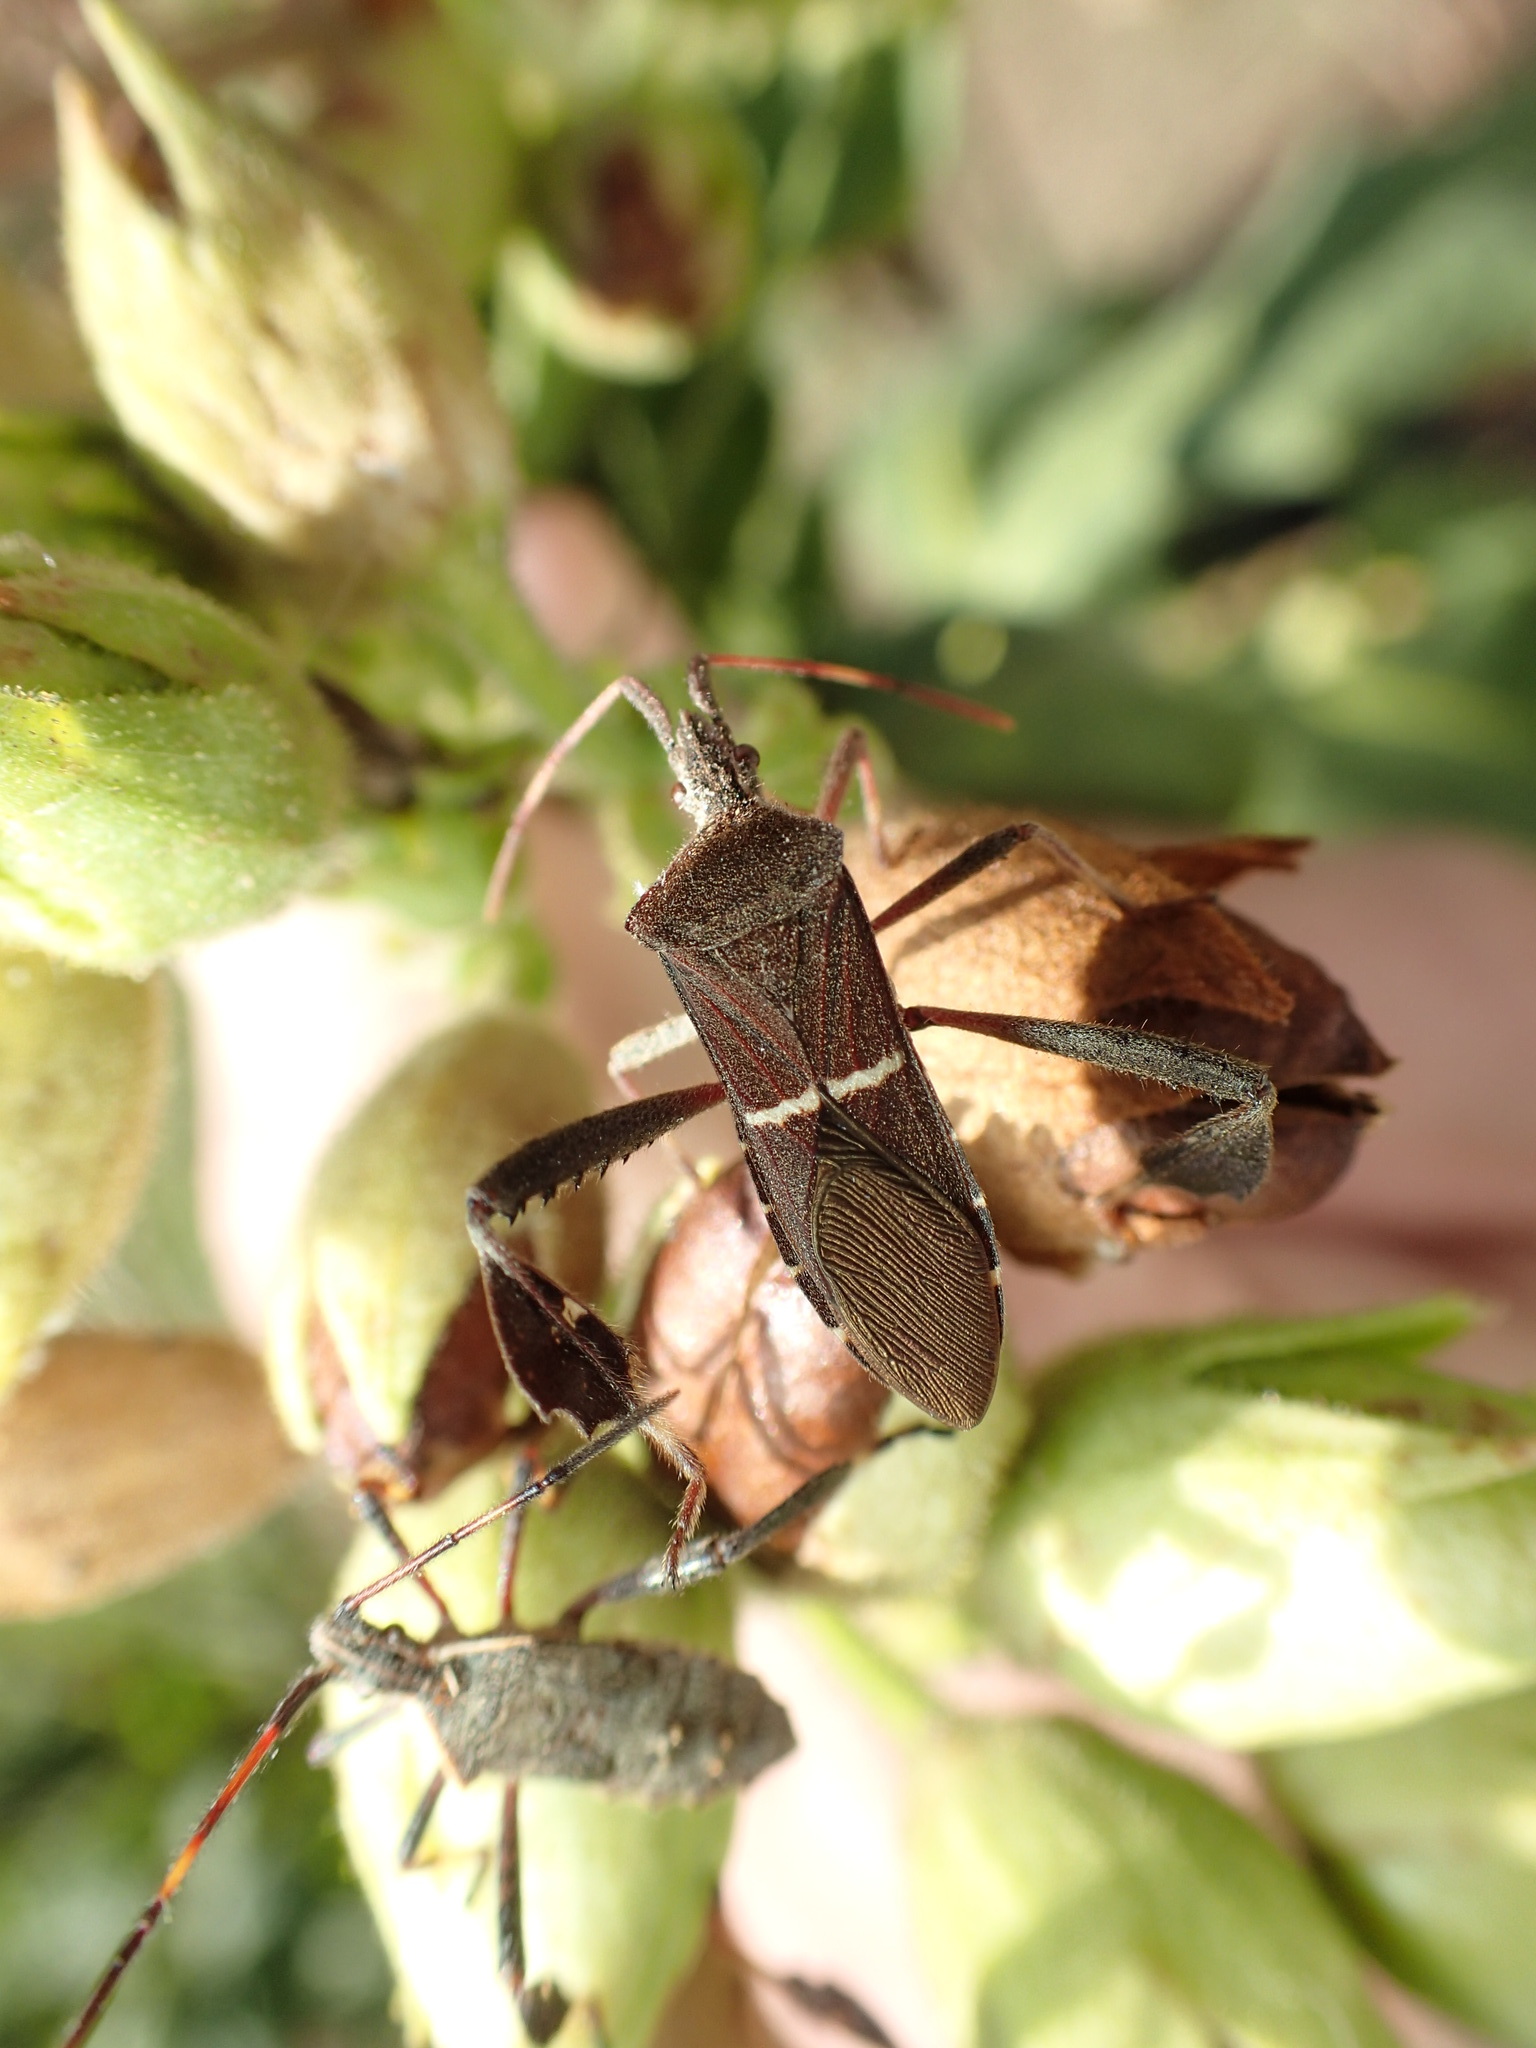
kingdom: Animalia
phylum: Arthropoda
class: Insecta
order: Hemiptera
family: Coreidae
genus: Leptoglossus
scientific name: Leptoglossus phyllopus
